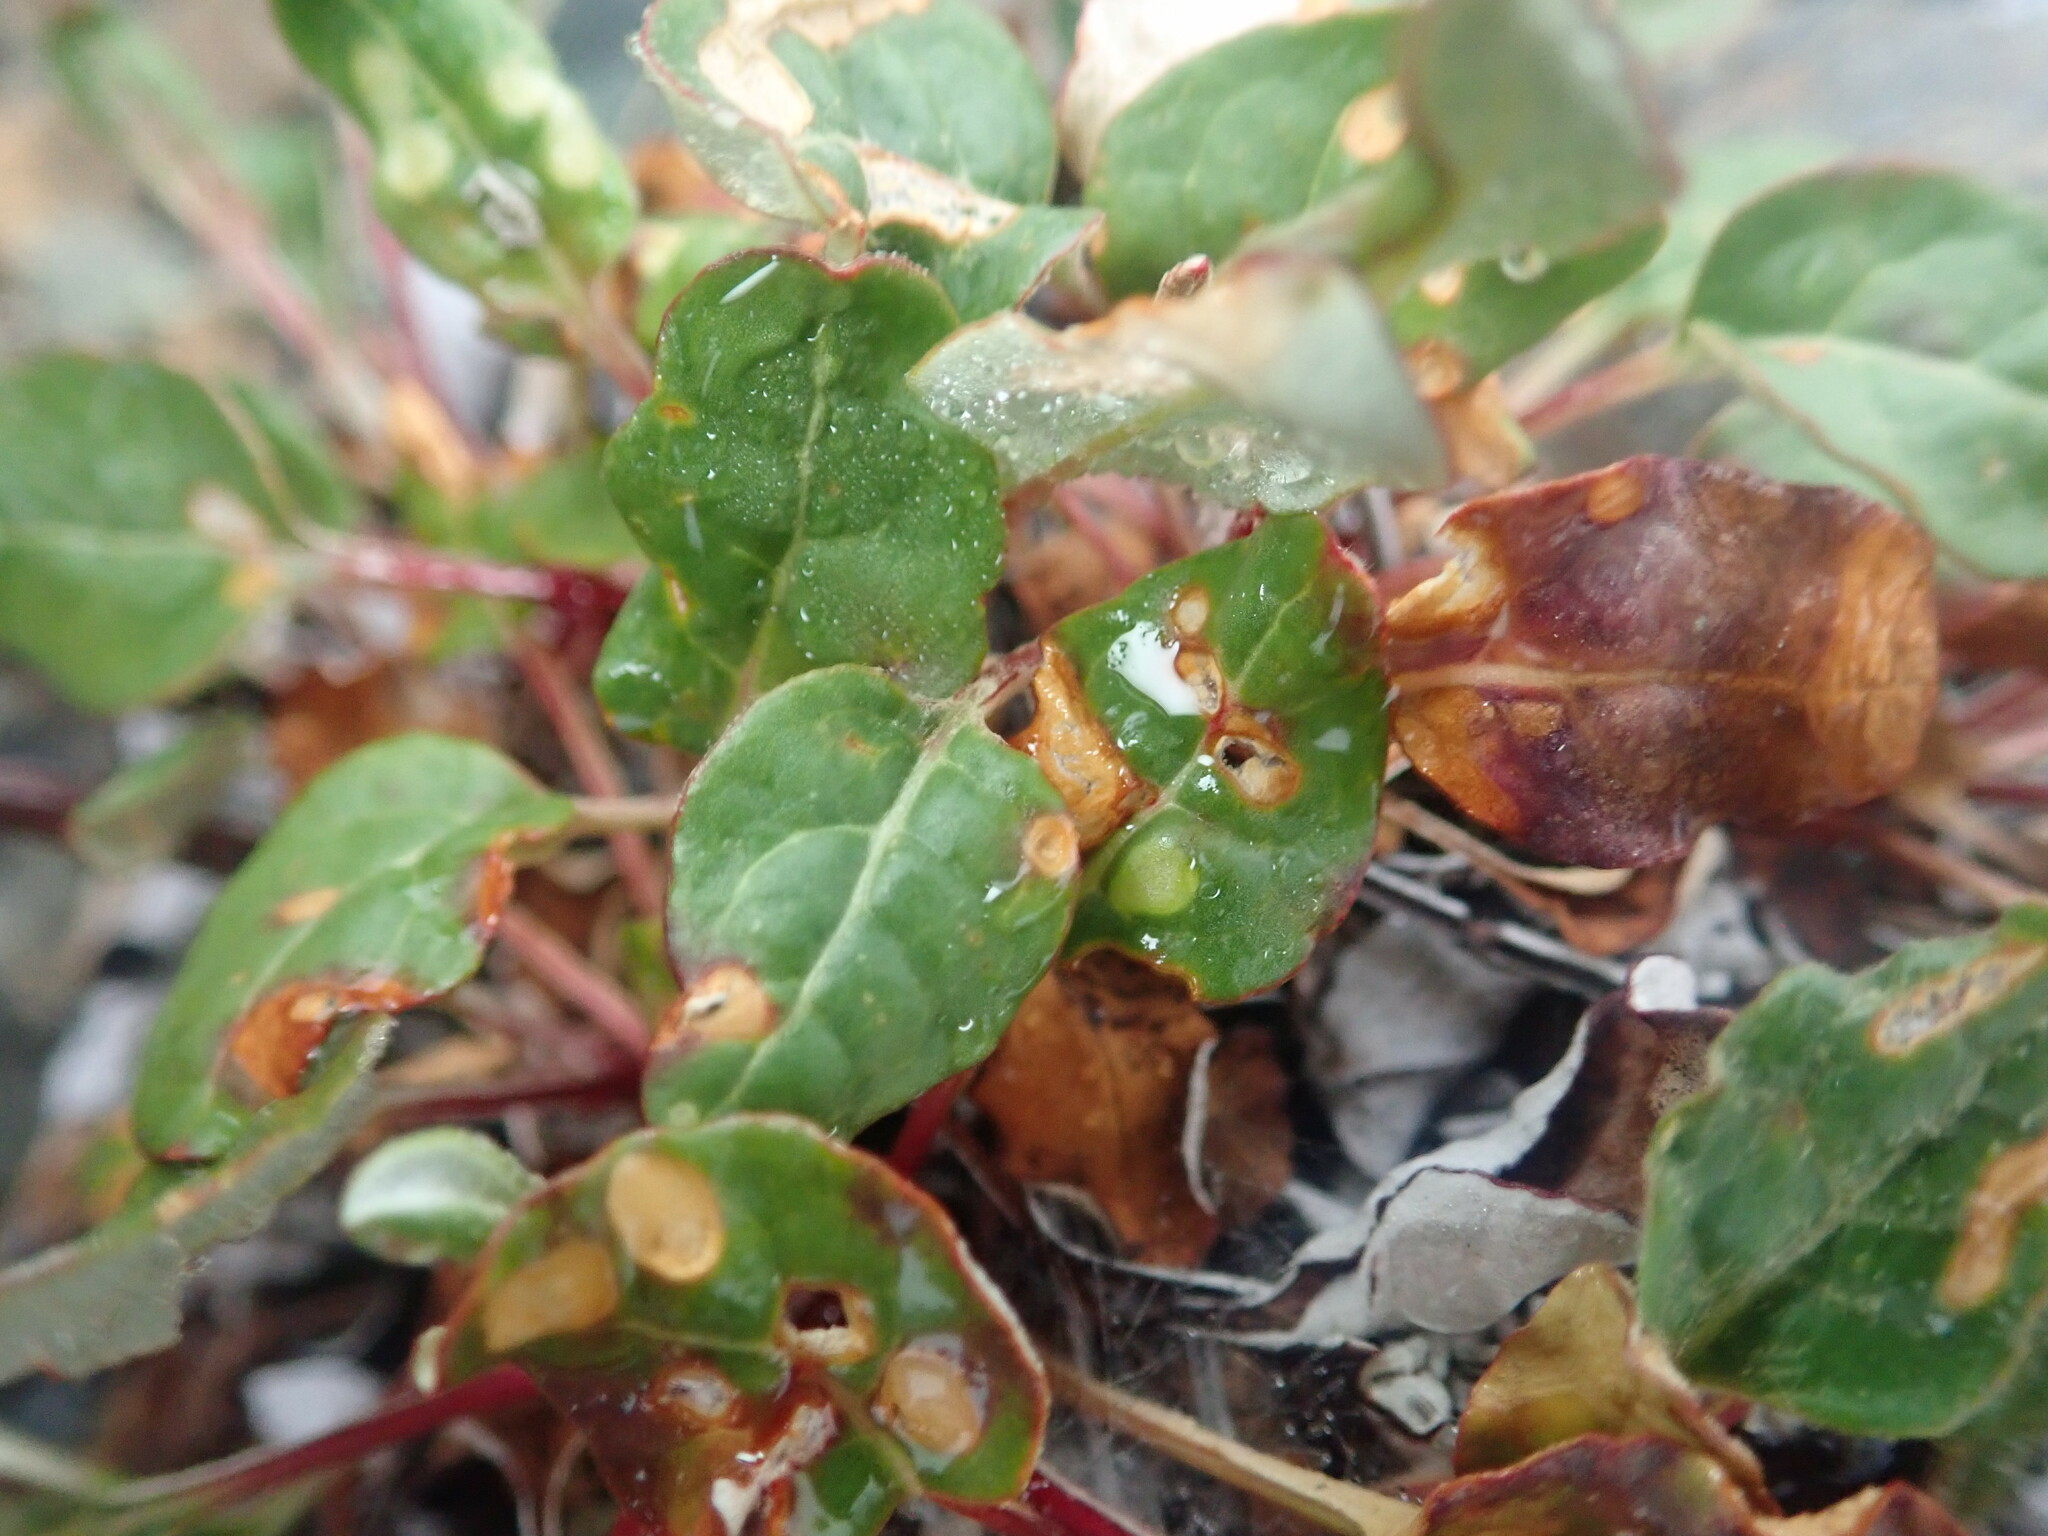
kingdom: Plantae
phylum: Tracheophyta
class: Magnoliopsida
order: Caryophyllales
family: Polygonaceae
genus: Eriogonum
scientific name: Eriogonum nudum
